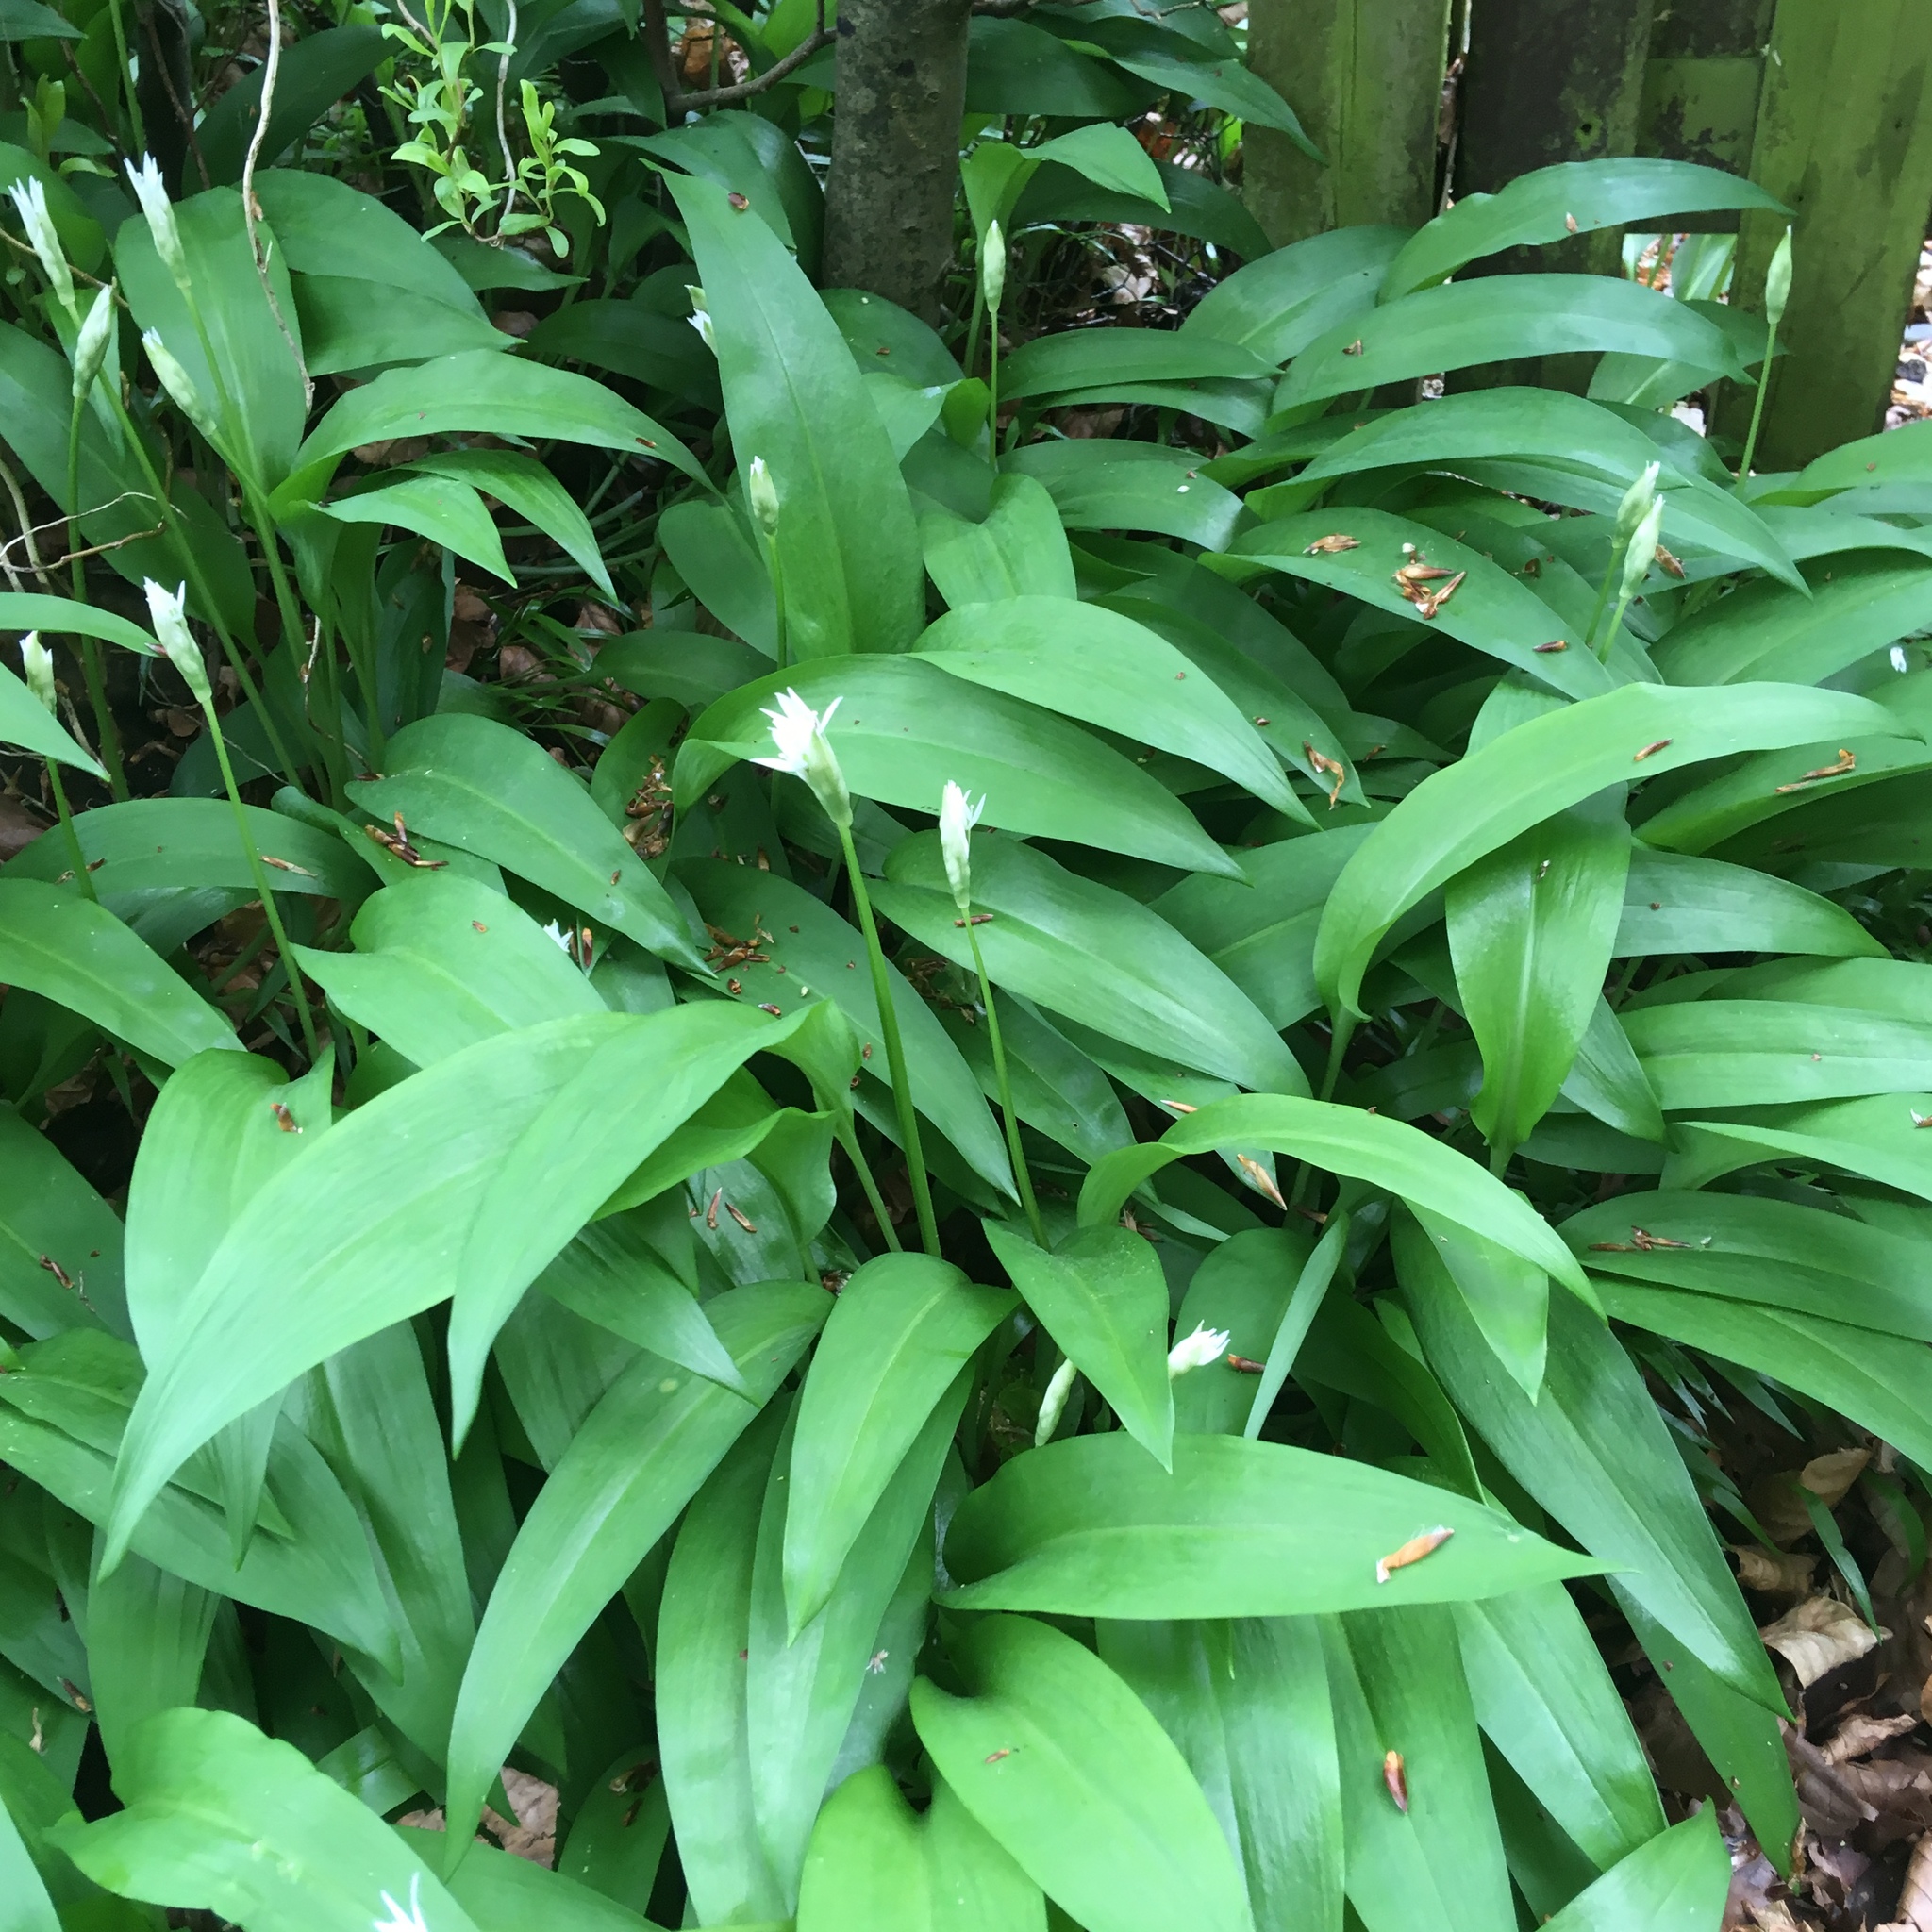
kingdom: Plantae
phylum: Tracheophyta
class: Liliopsida
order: Asparagales
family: Amaryllidaceae
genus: Allium
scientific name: Allium ursinum
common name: Ramsons
